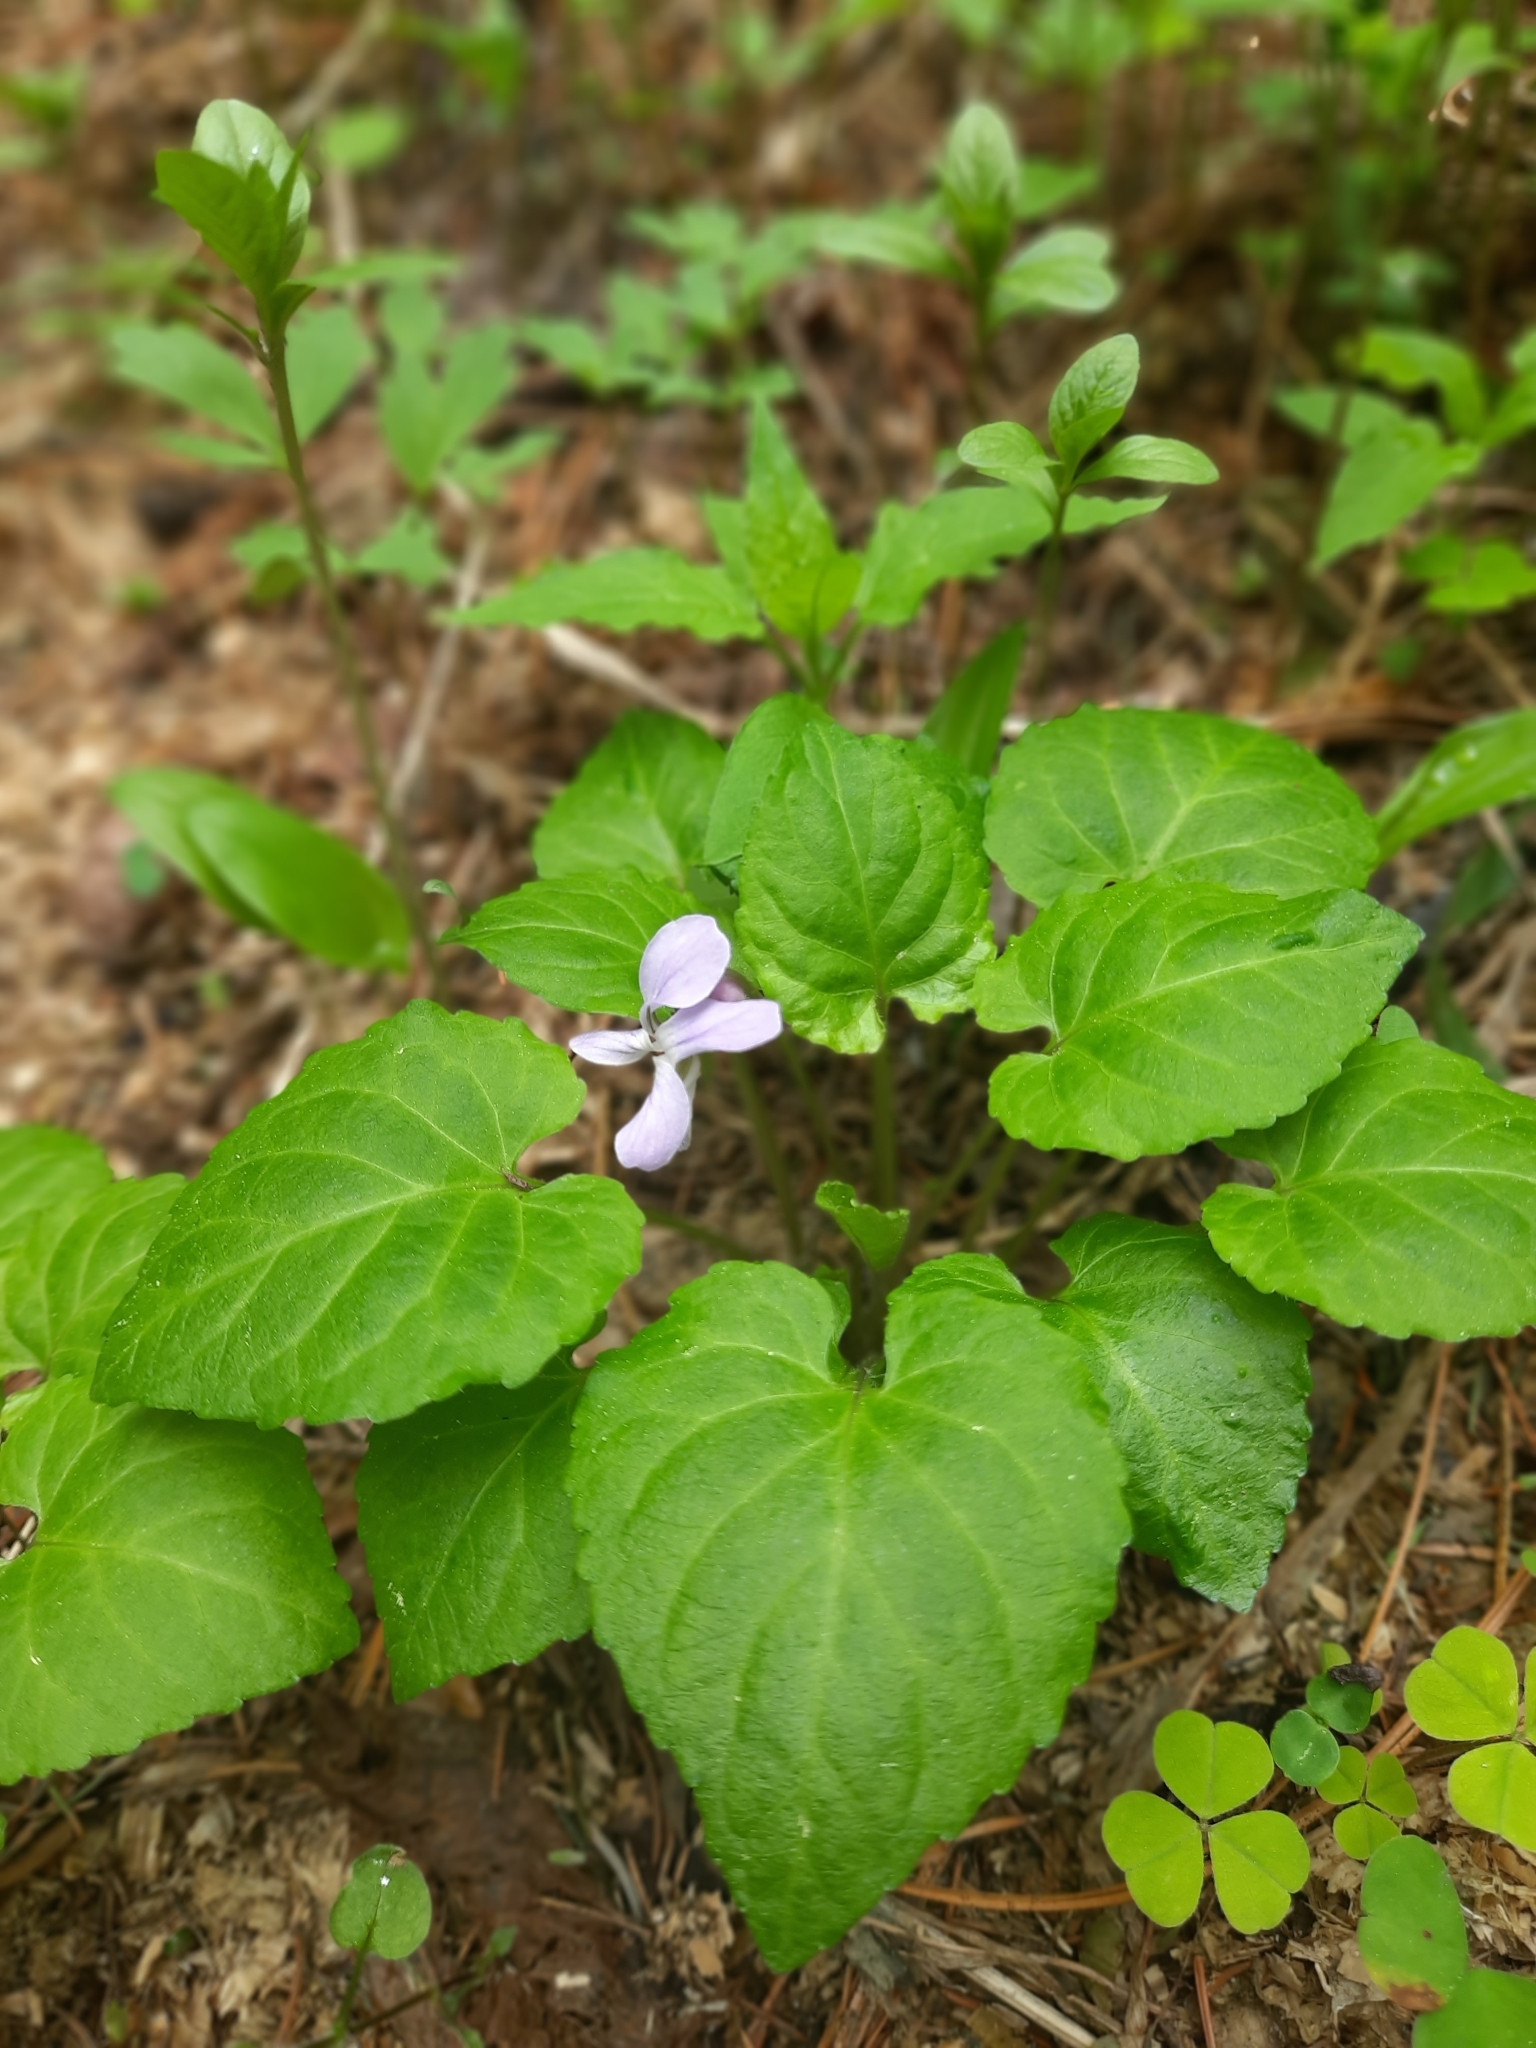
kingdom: Plantae
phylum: Tracheophyta
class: Magnoliopsida
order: Malpighiales
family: Violaceae
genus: Viola
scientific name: Viola selkirkii
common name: Selkirk's violet
